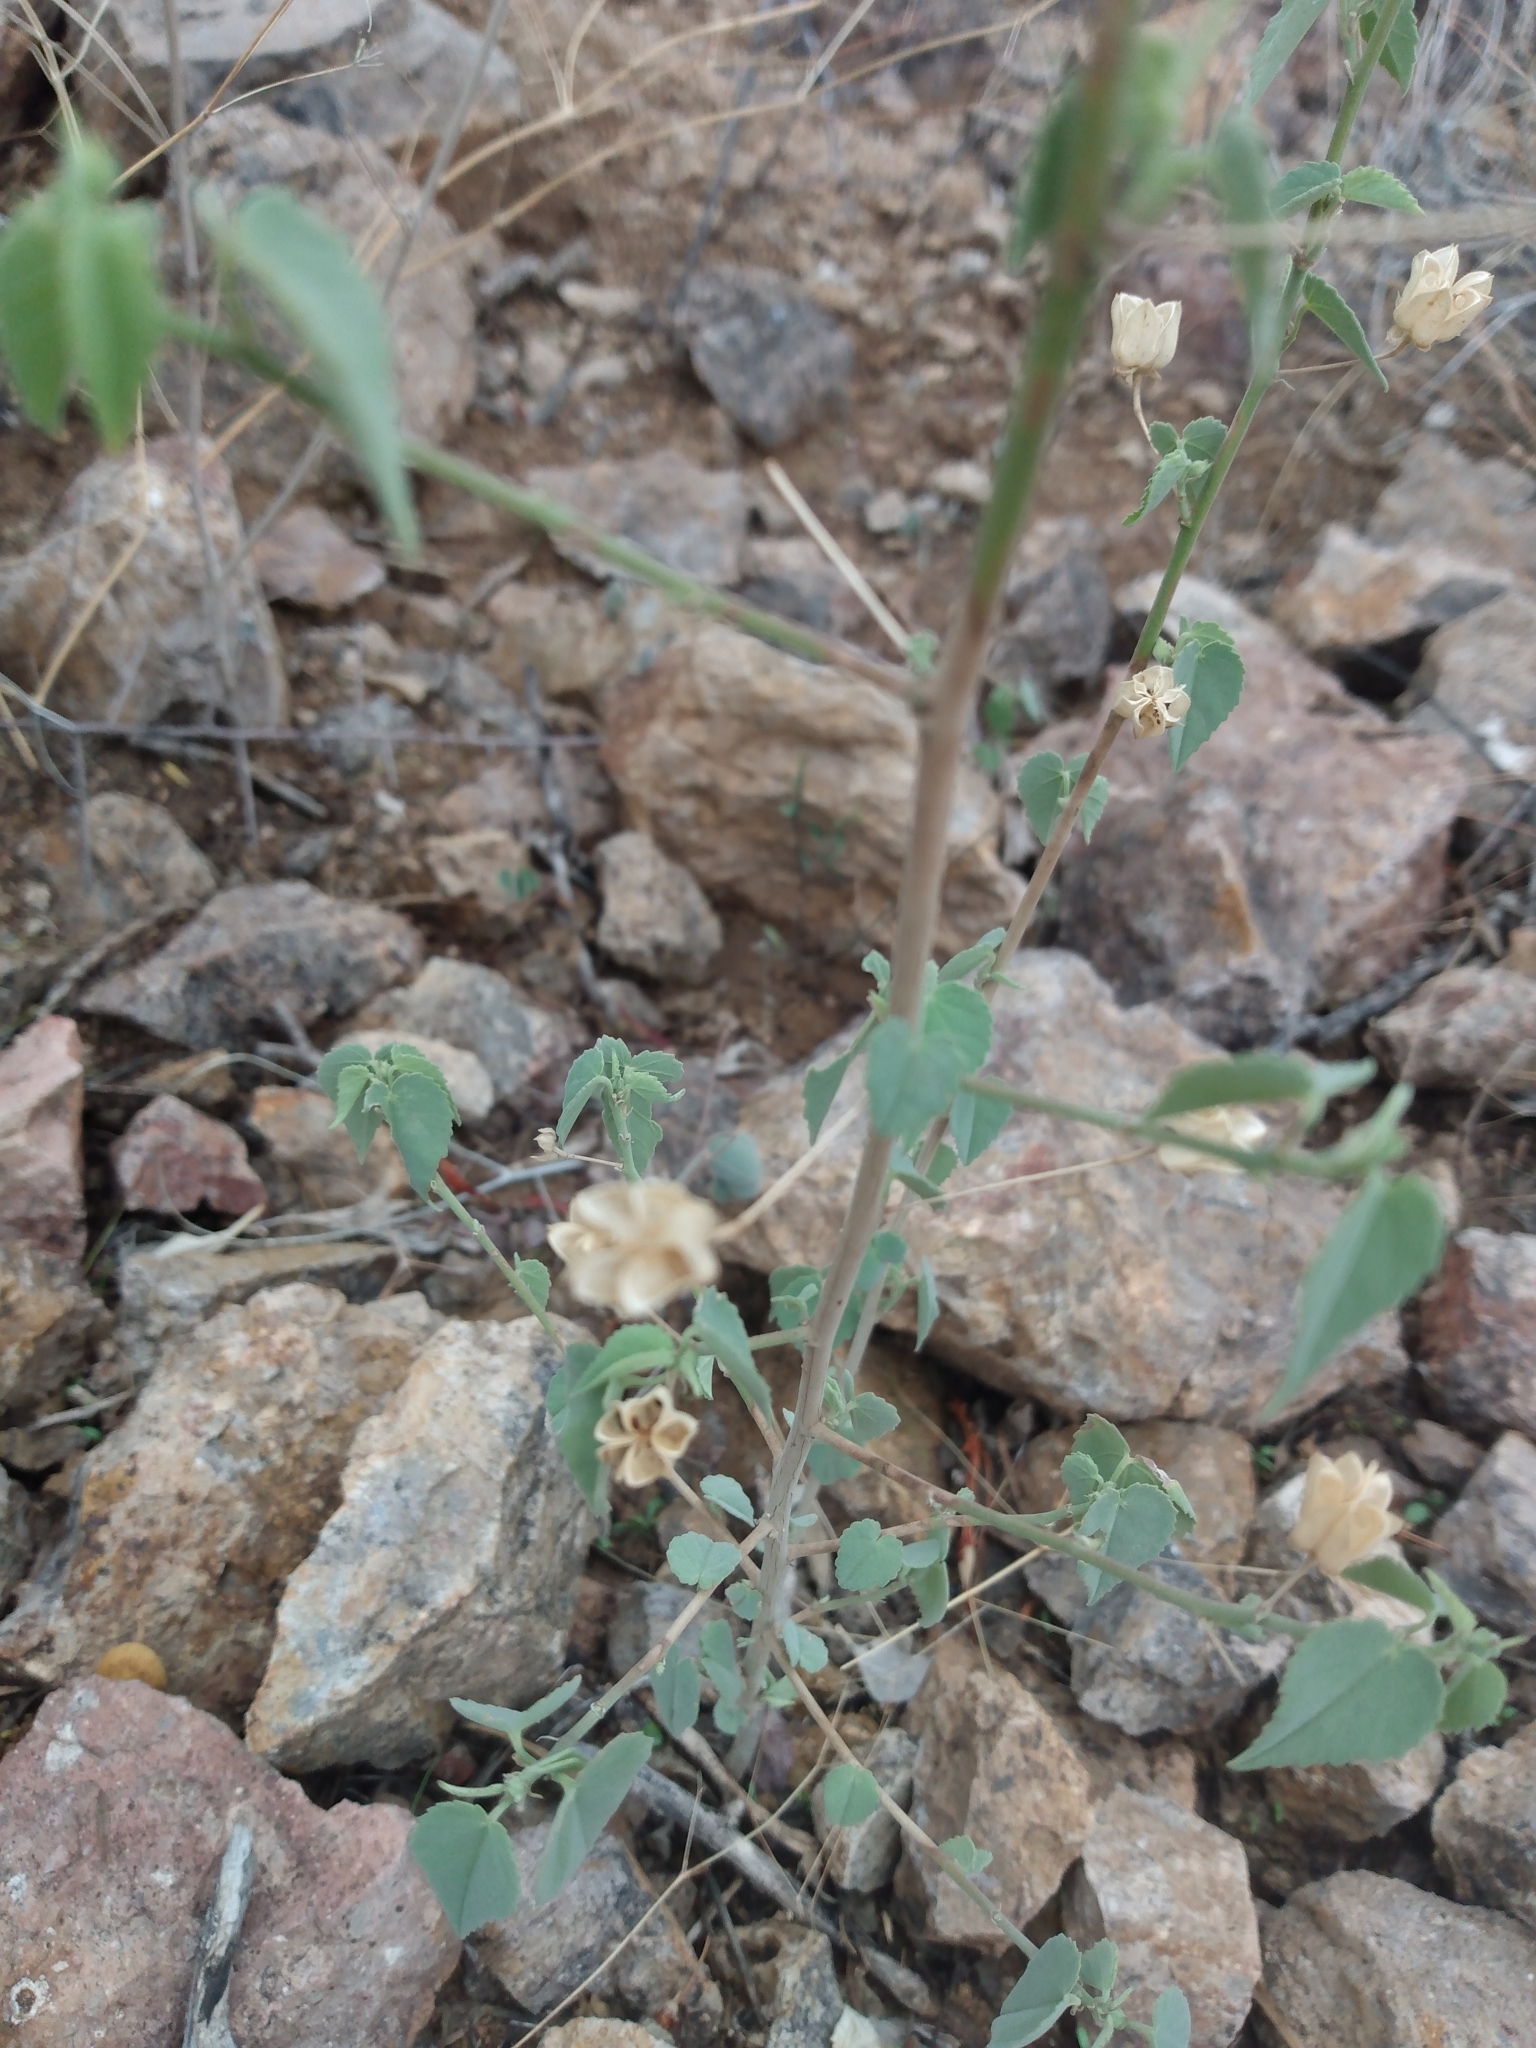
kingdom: Plantae
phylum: Tracheophyta
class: Magnoliopsida
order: Malvales
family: Malvaceae
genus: Abutilon
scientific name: Abutilon incanum
